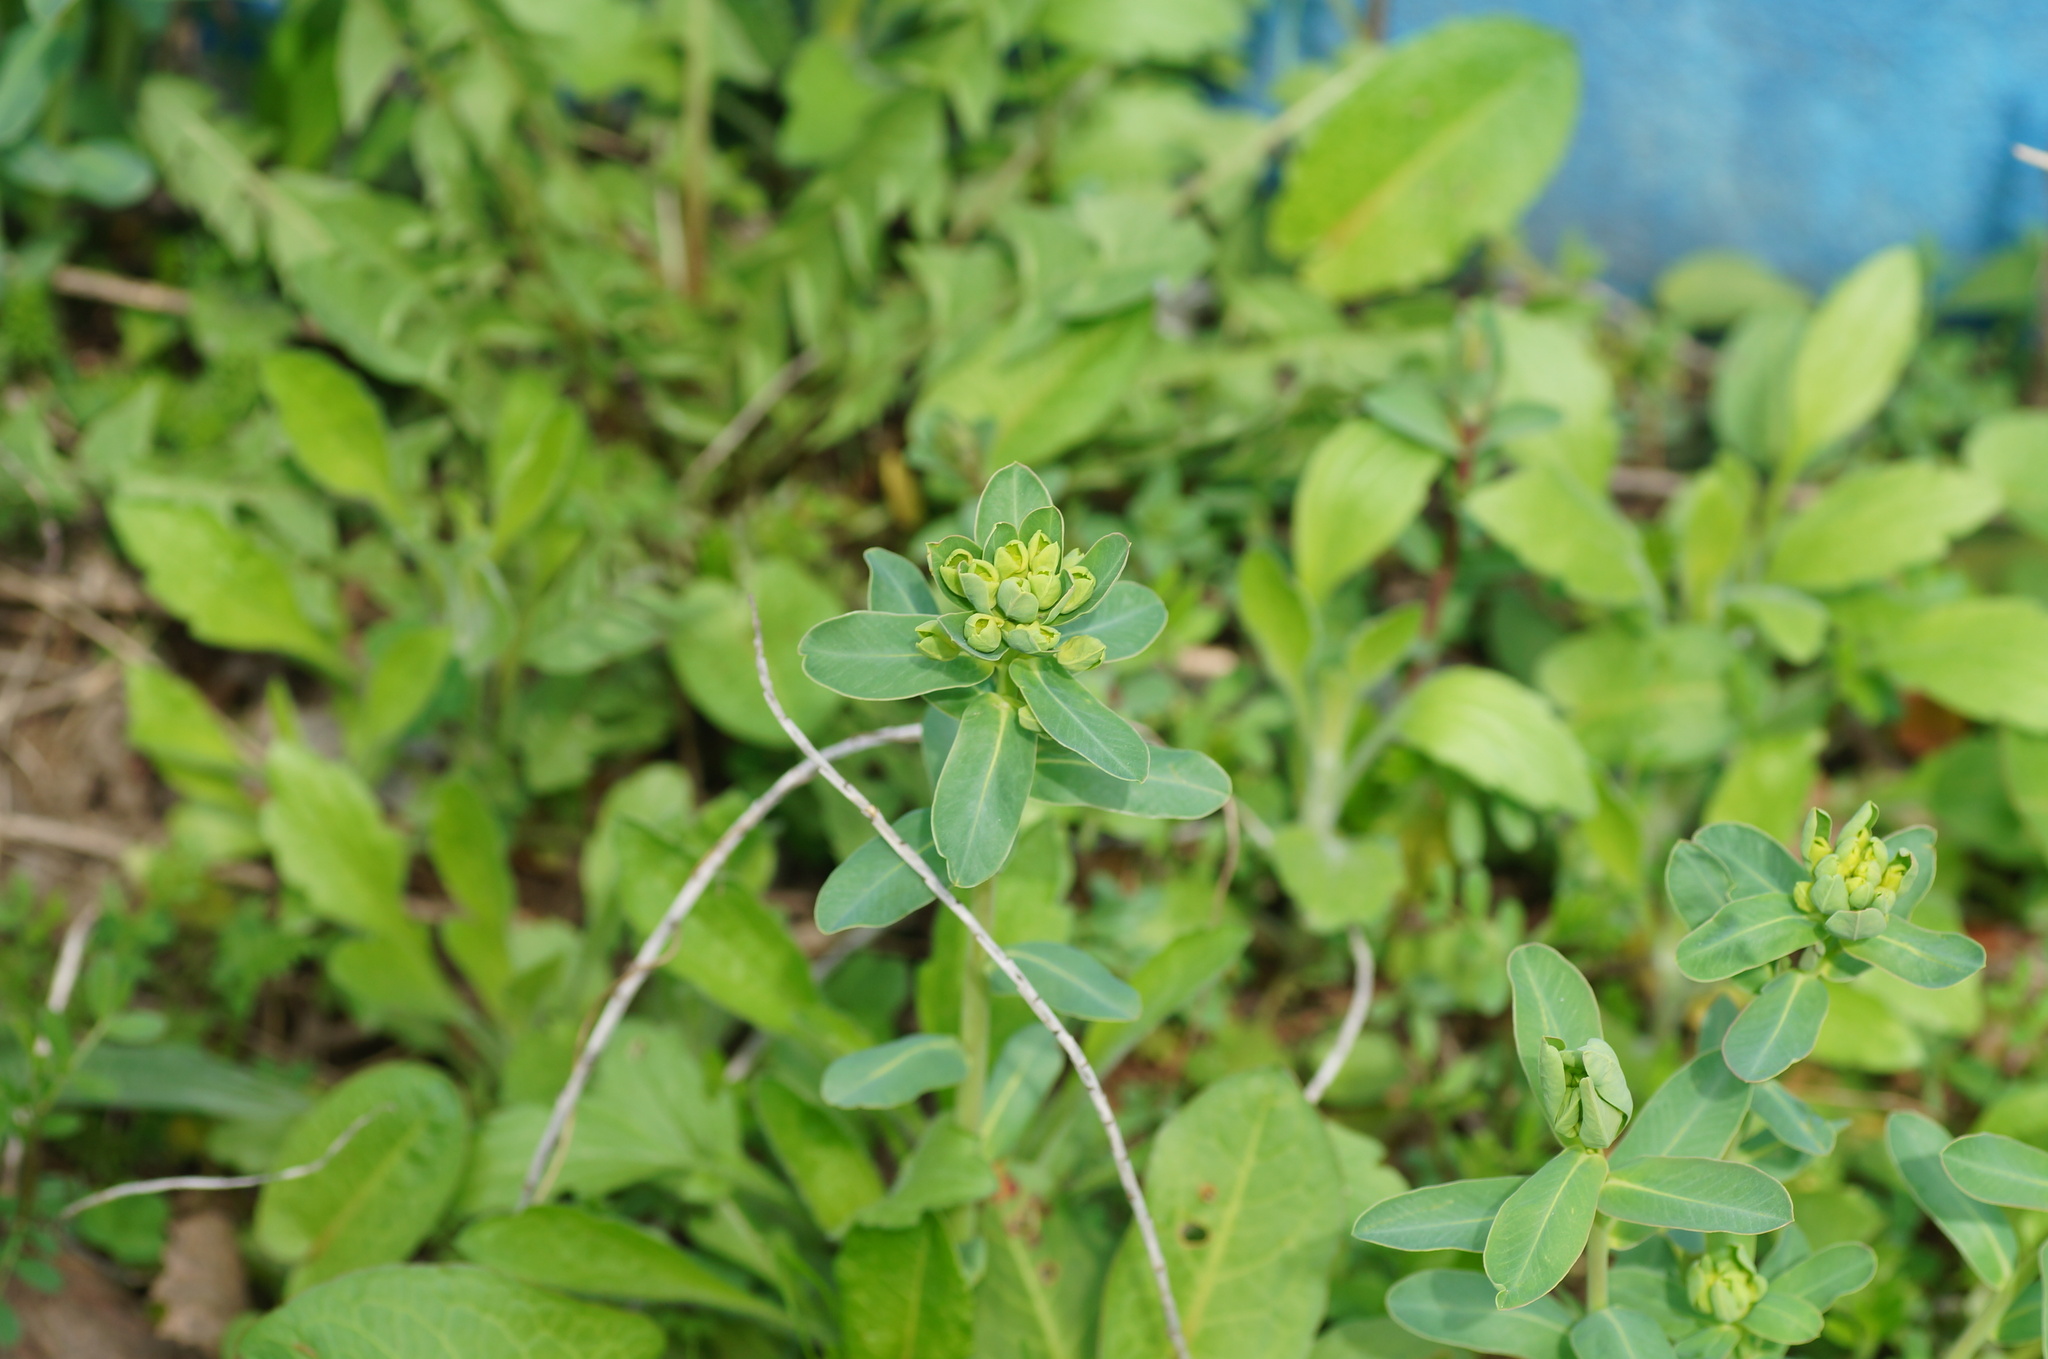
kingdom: Plantae
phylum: Tracheophyta
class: Magnoliopsida
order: Malpighiales
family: Euphorbiaceae
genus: Euphorbia
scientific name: Euphorbia iberica
